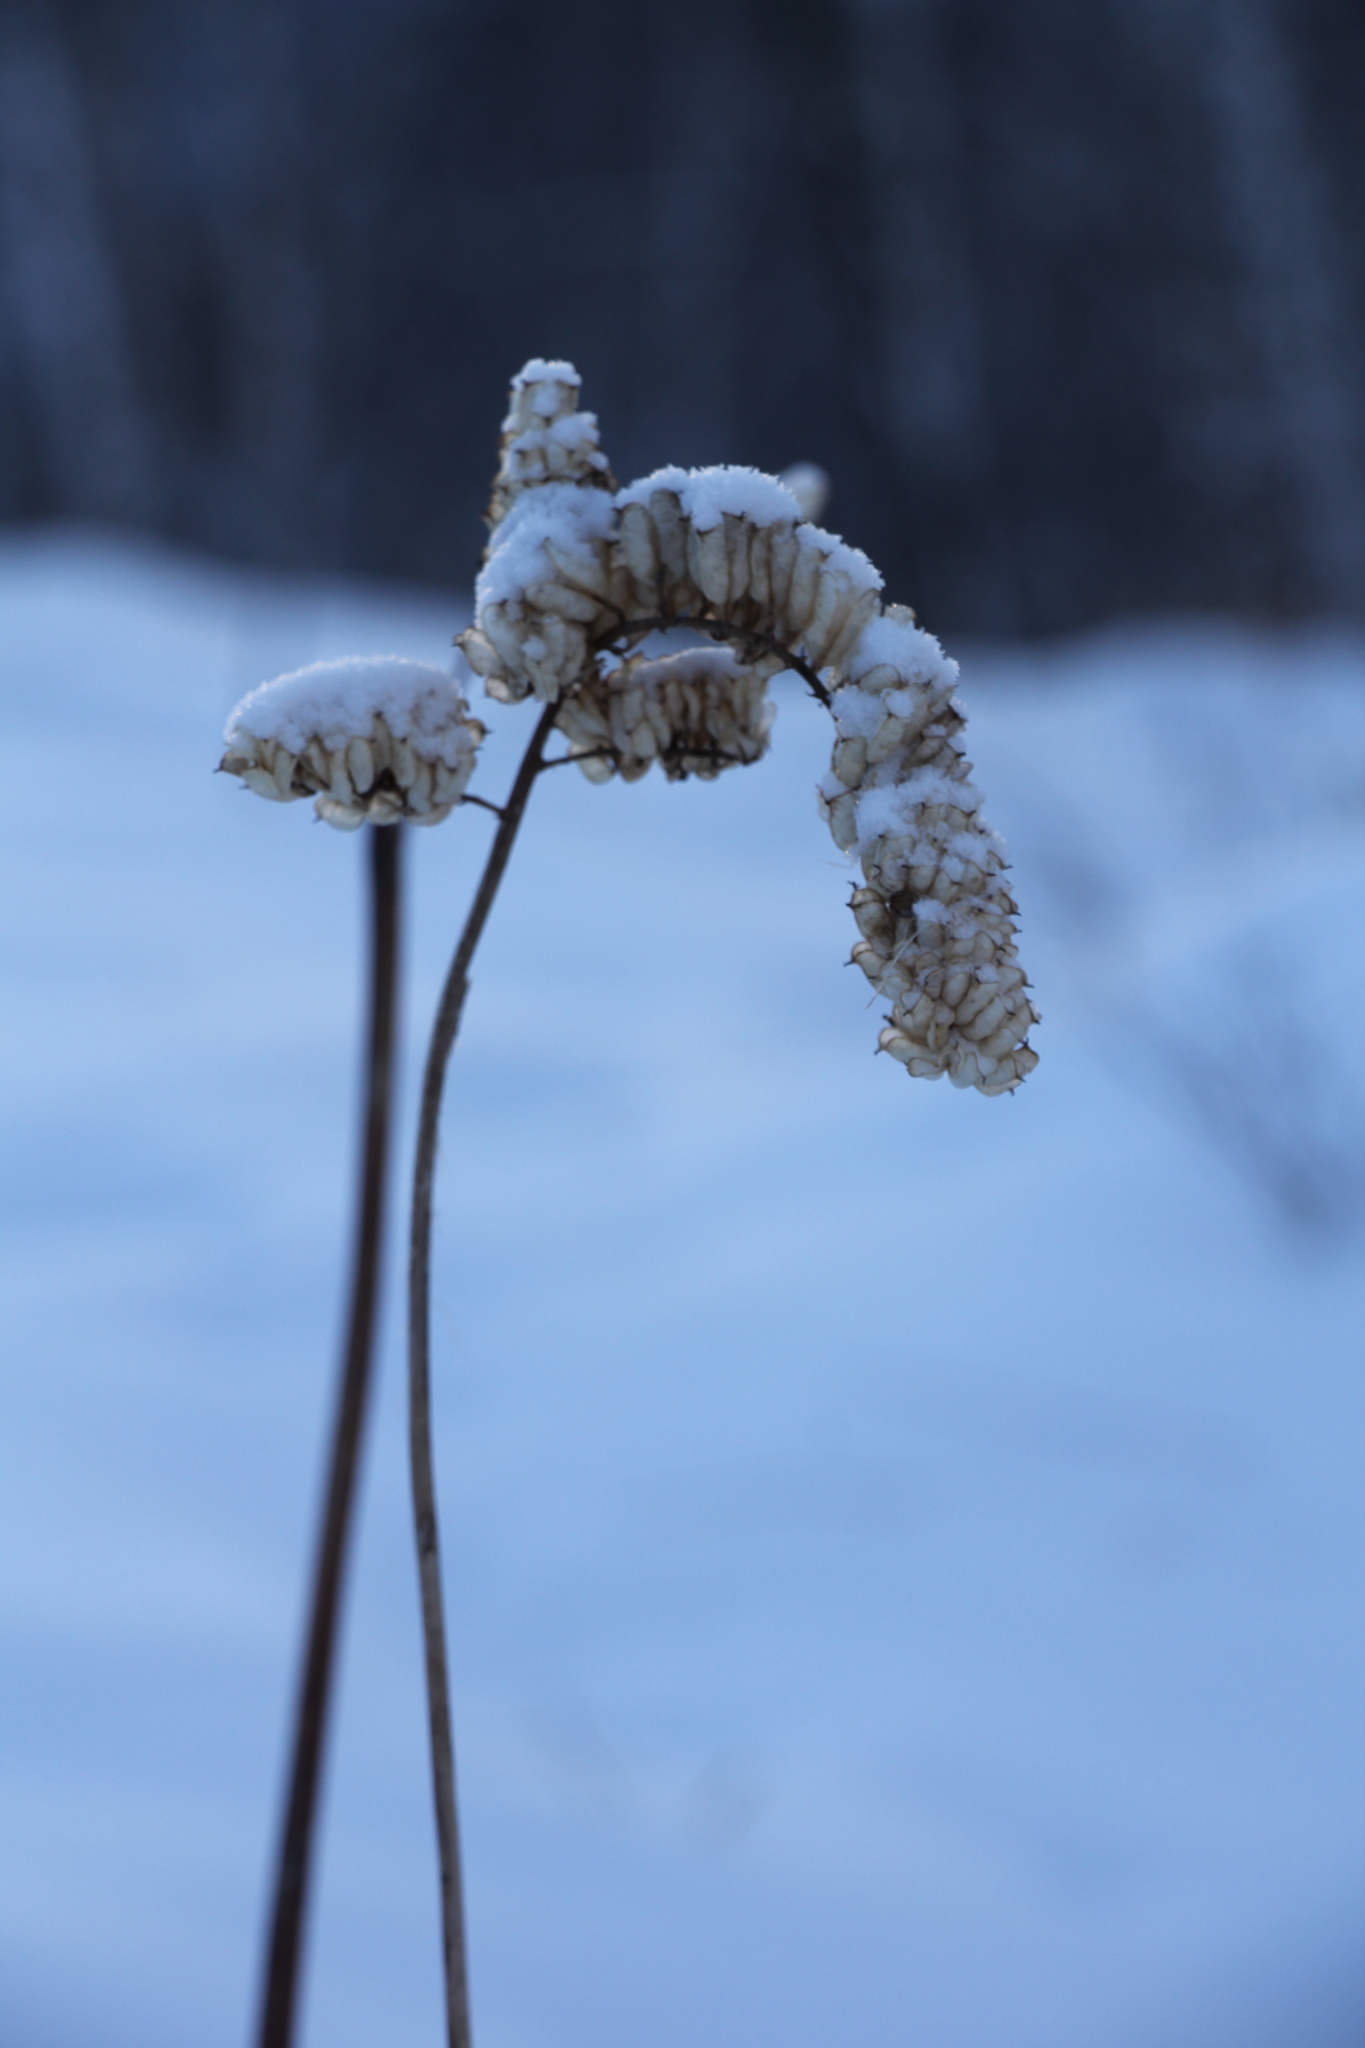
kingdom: Plantae
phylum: Tracheophyta
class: Magnoliopsida
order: Ranunculales
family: Ranunculaceae
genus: Actaea
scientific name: Actaea cimicifuga
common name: Chinese cimicifuga
